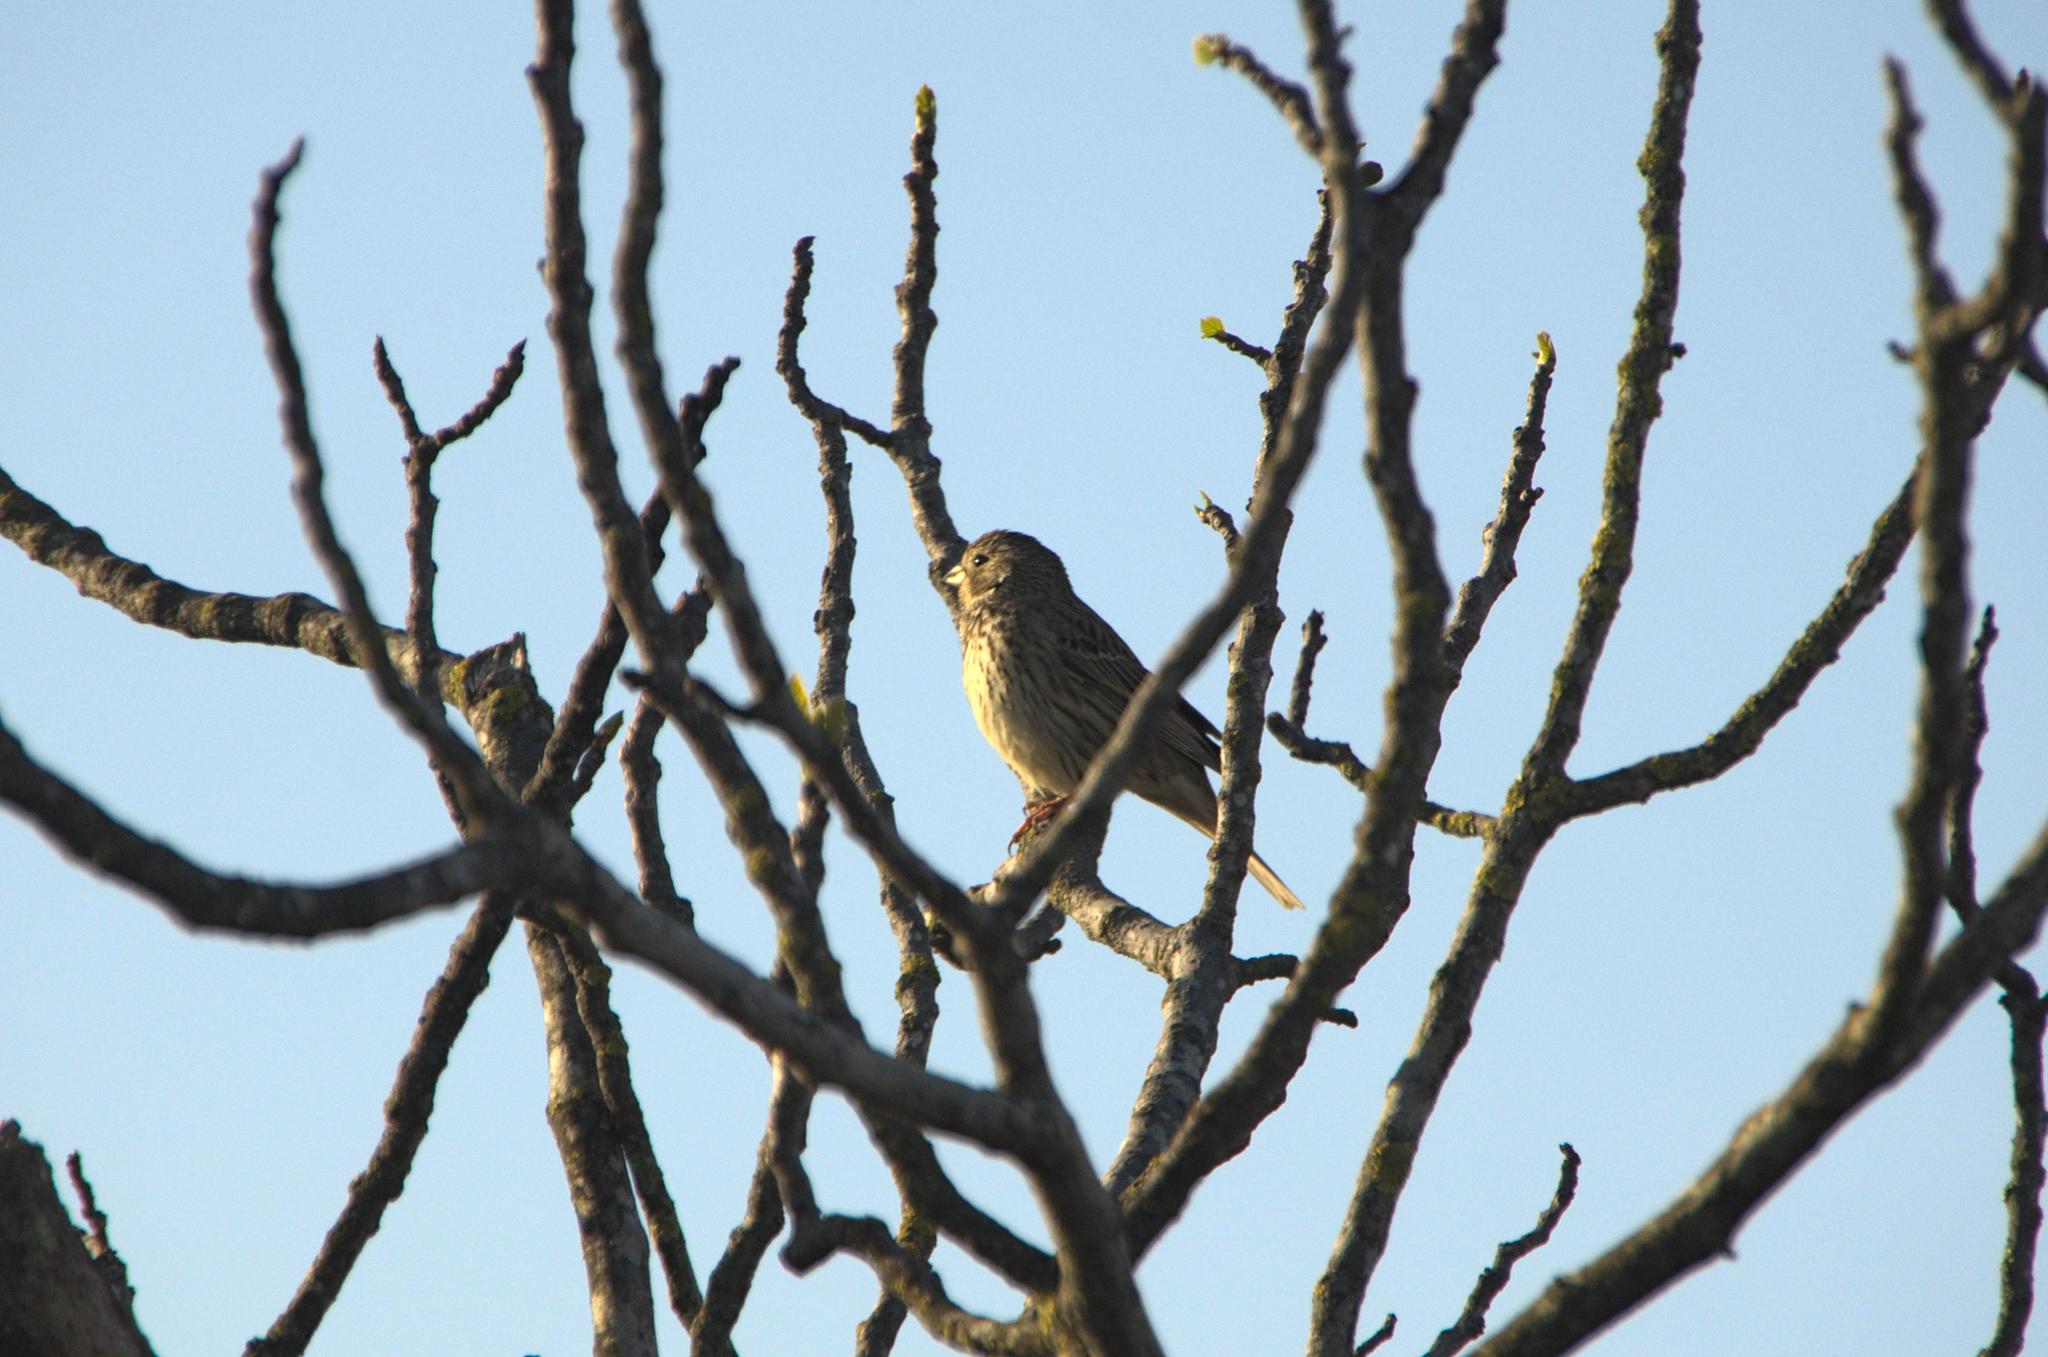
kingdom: Animalia
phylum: Chordata
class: Aves
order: Passeriformes
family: Emberizidae
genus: Emberiza
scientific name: Emberiza calandra
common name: Corn bunting
